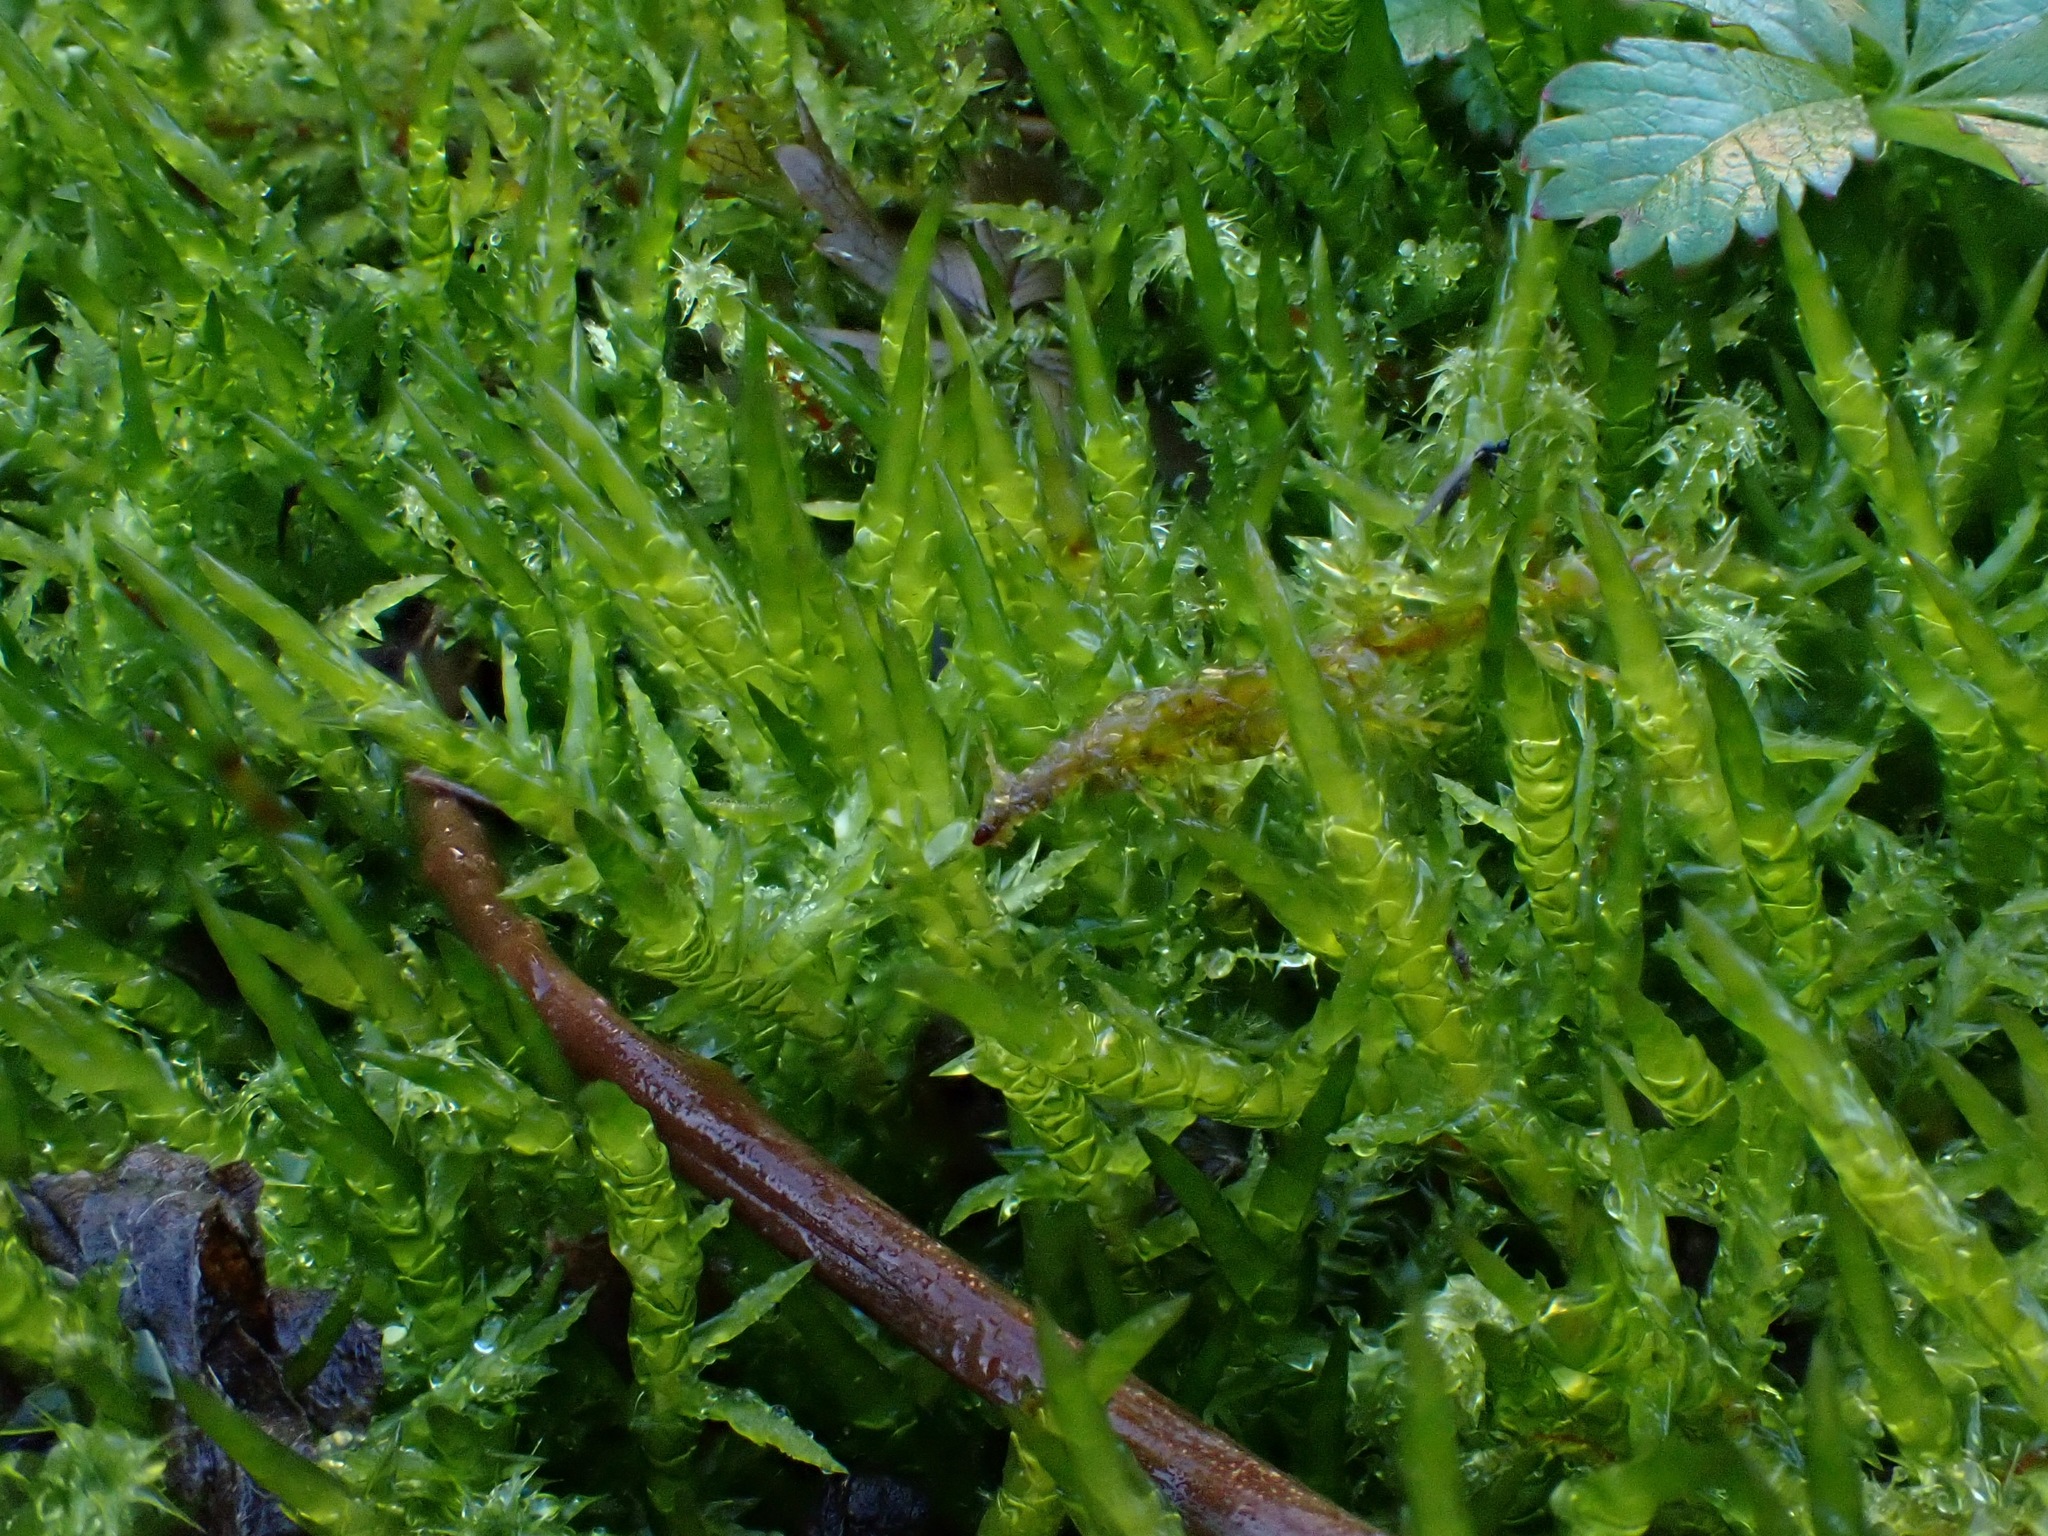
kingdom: Plantae
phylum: Bryophyta
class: Bryopsida
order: Hypnales
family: Pylaisiaceae
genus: Calliergonella
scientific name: Calliergonella cuspidata
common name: Common large wetland moss
